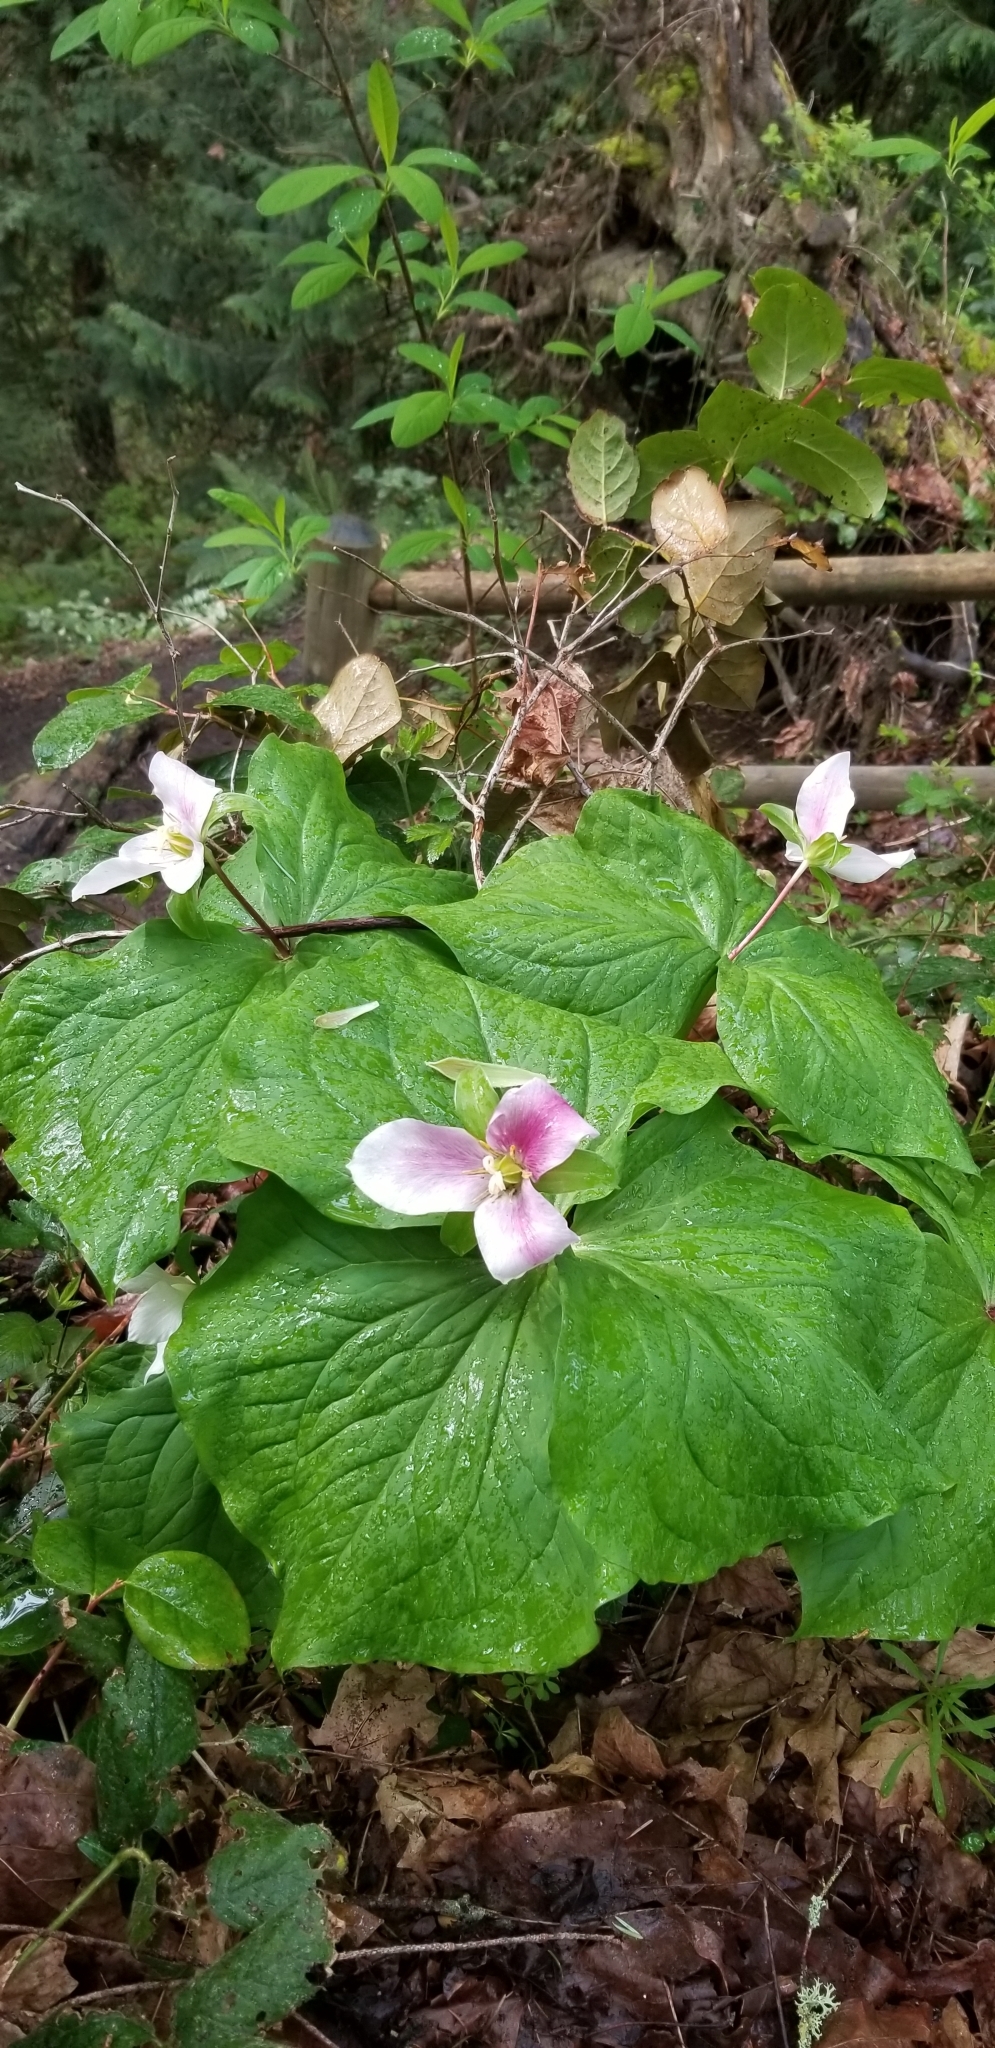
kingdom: Plantae
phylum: Tracheophyta
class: Liliopsida
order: Liliales
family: Melanthiaceae
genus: Trillium
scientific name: Trillium ovatum
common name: Pacific trillium
